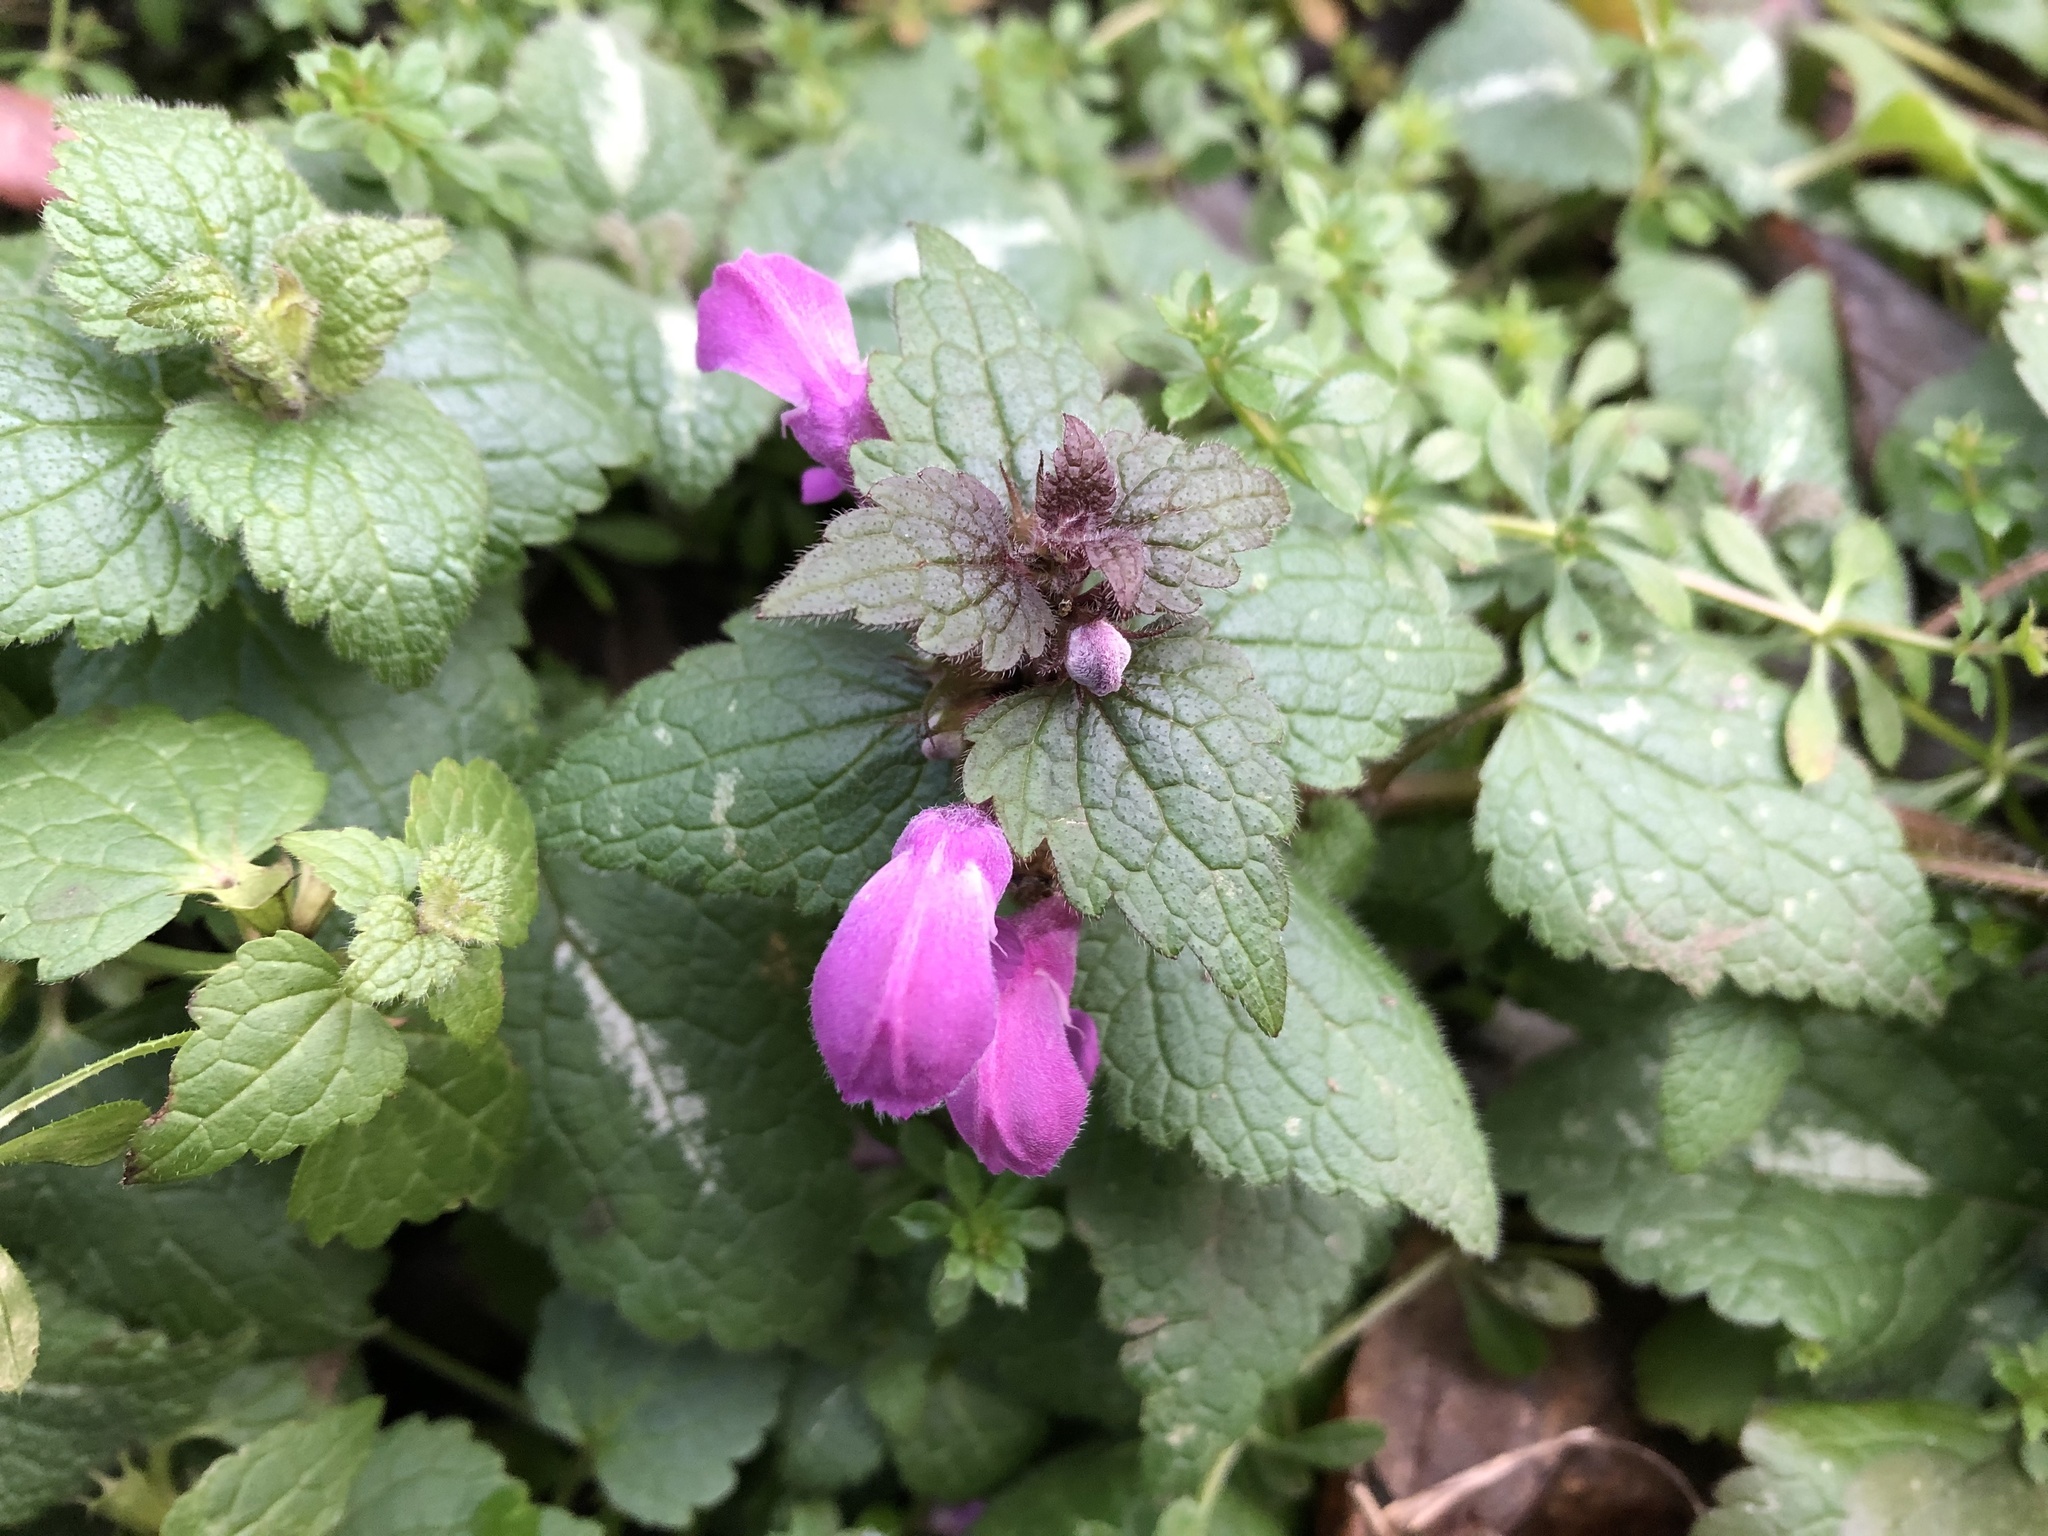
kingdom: Plantae
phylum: Tracheophyta
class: Magnoliopsida
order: Lamiales
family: Lamiaceae
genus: Lamium
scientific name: Lamium maculatum
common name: Spotted dead-nettle
